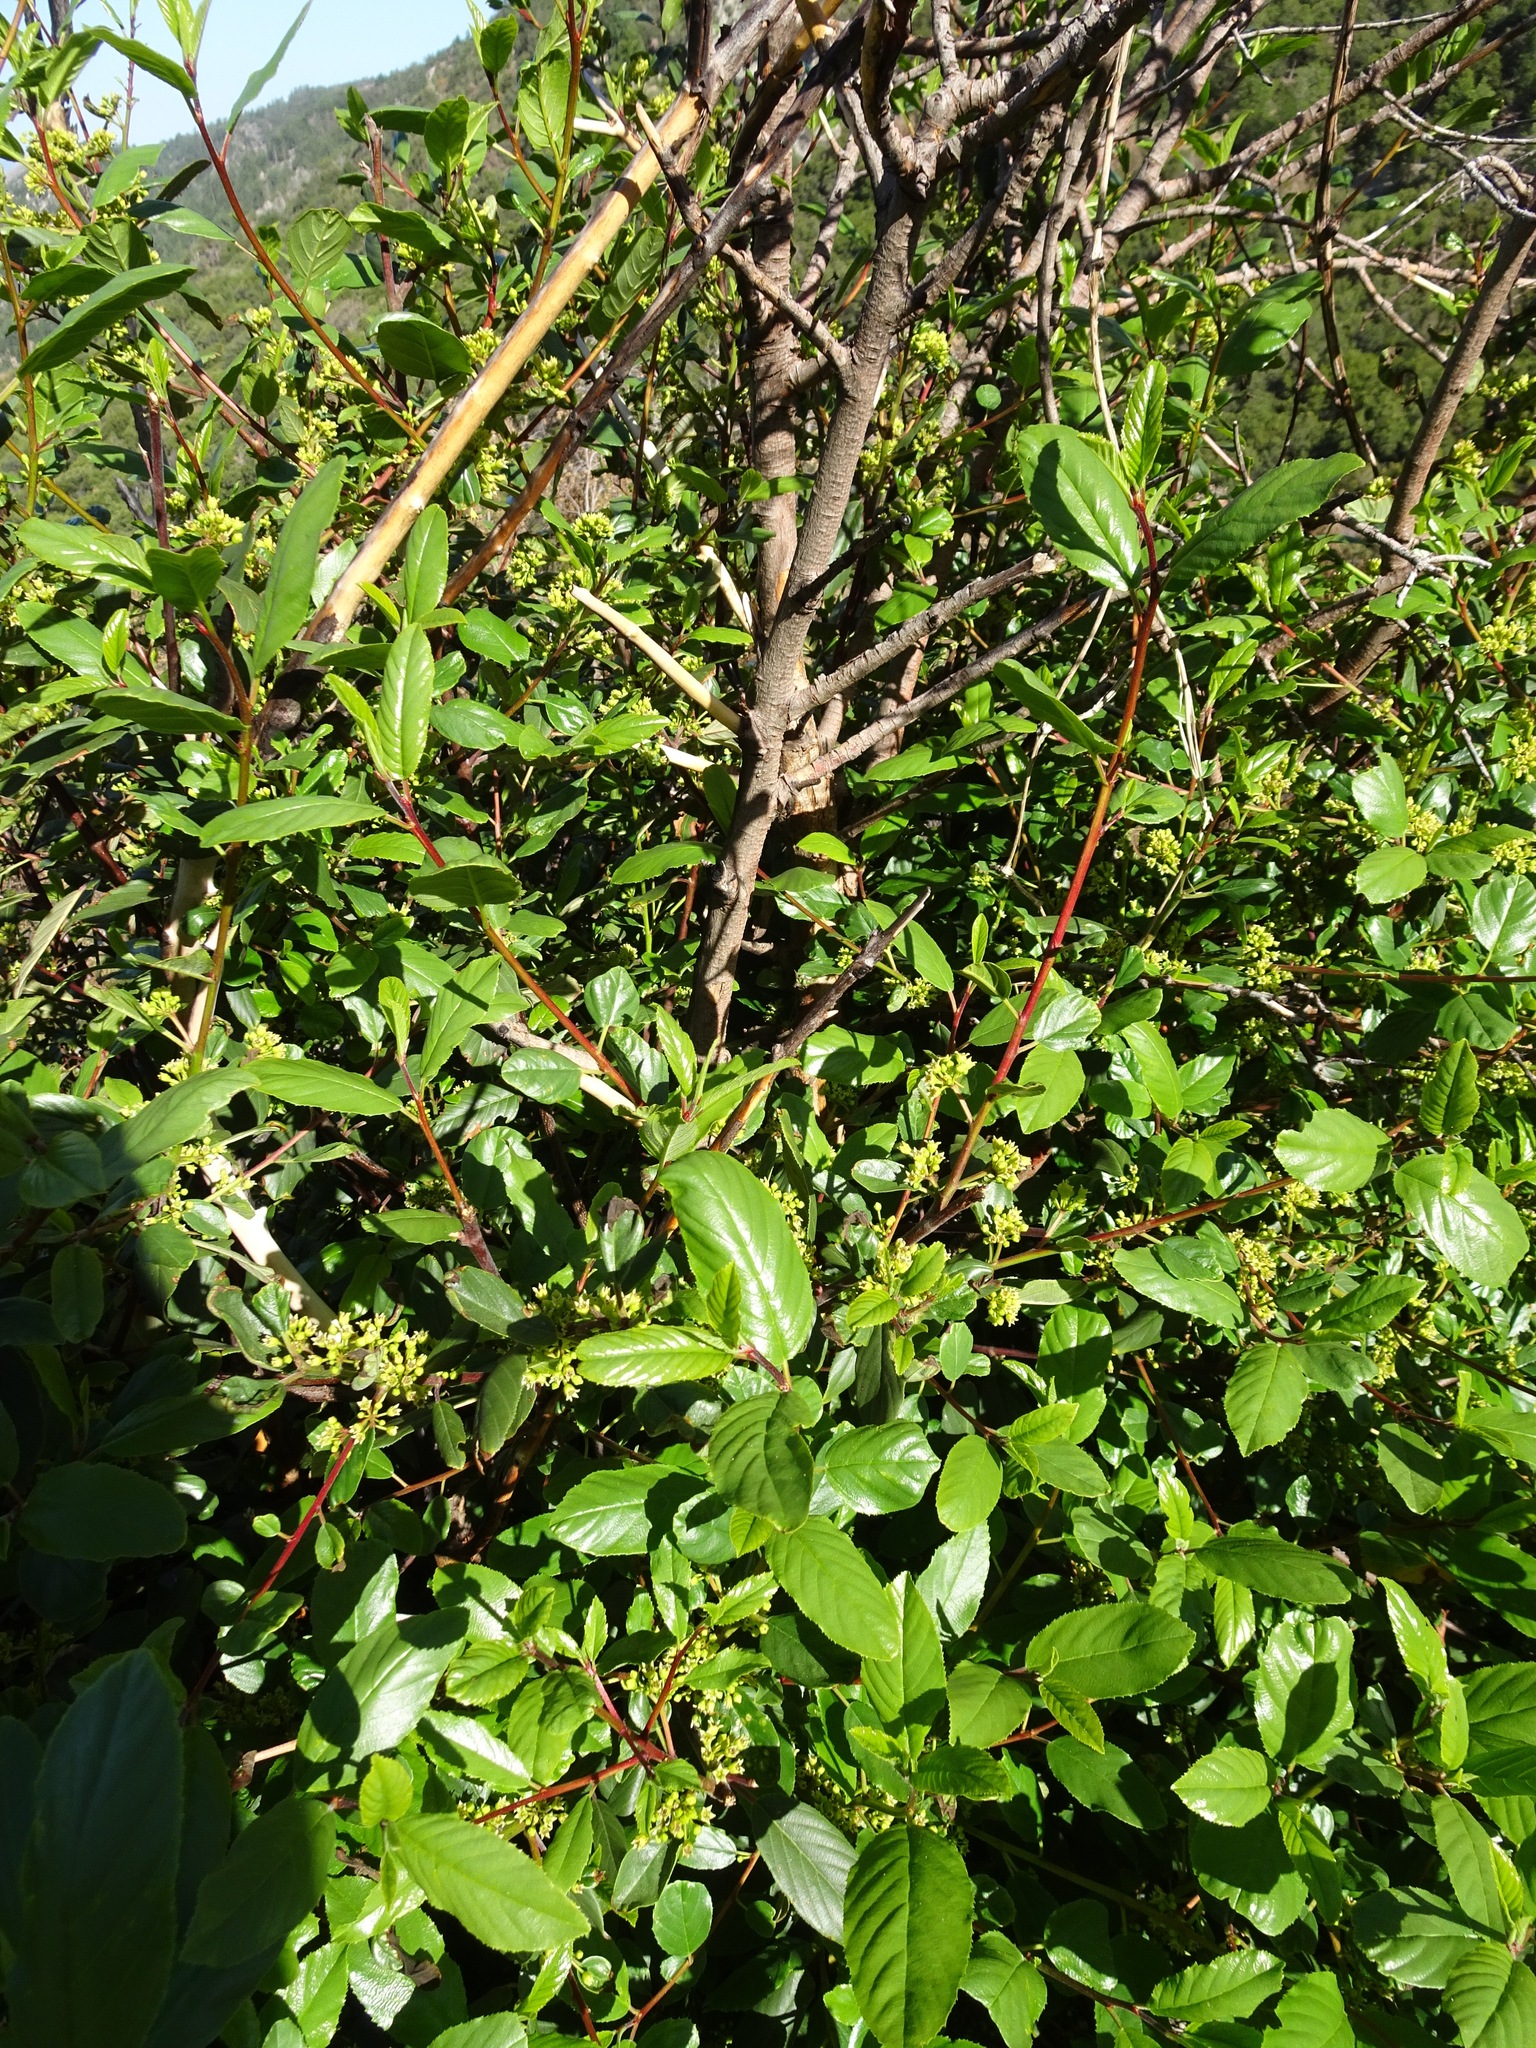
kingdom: Plantae
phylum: Tracheophyta
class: Magnoliopsida
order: Rosales
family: Rhamnaceae
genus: Frangula
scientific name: Frangula californica
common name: California buckthorn
